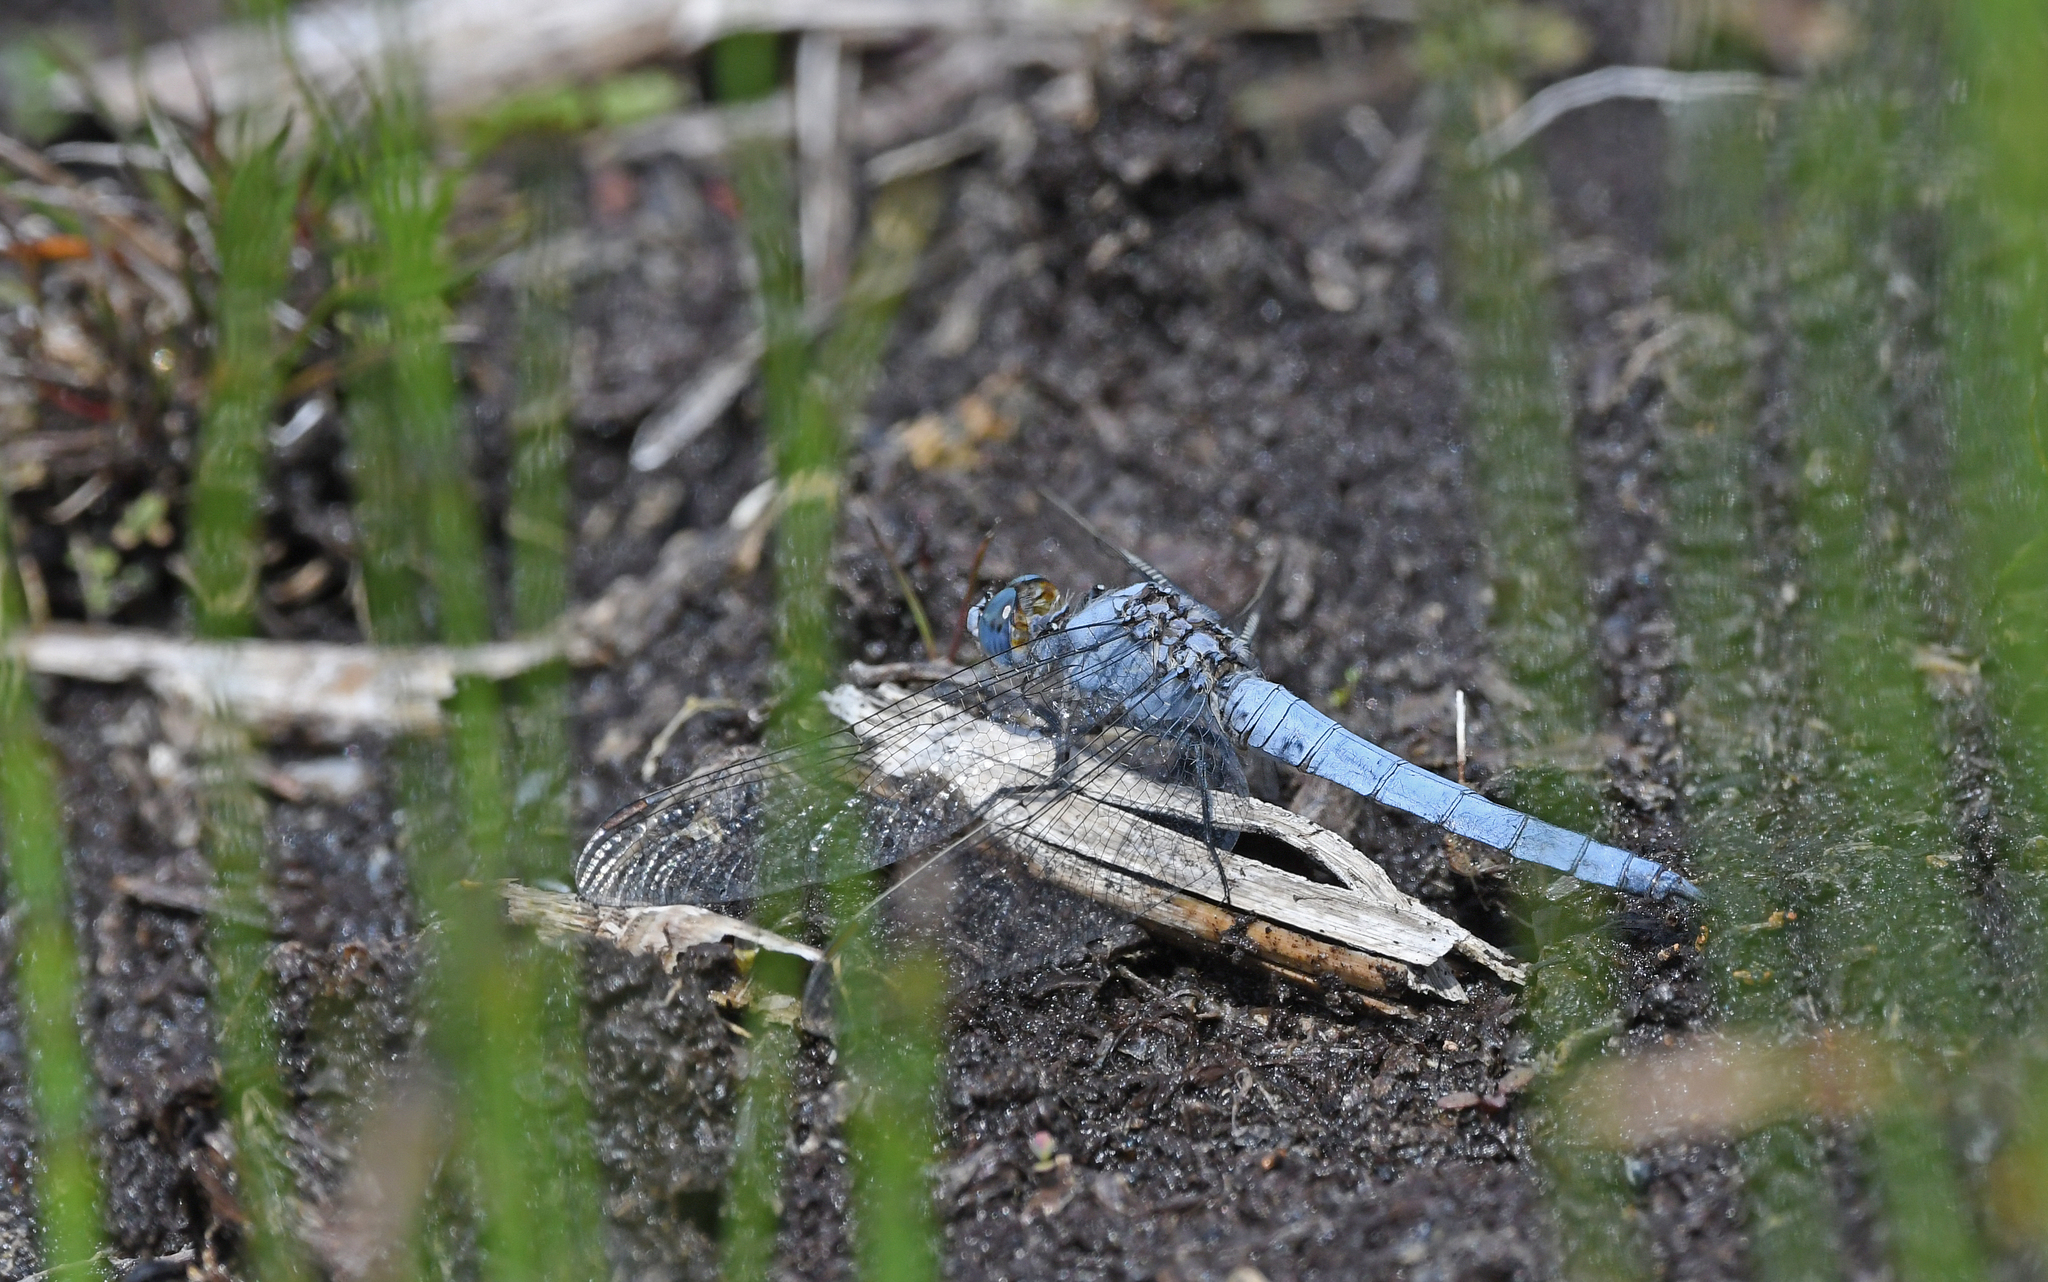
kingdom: Animalia
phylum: Arthropoda
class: Insecta
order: Odonata
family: Libellulidae
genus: Orthetrum
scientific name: Orthetrum brunneum
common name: Southern skimmer
